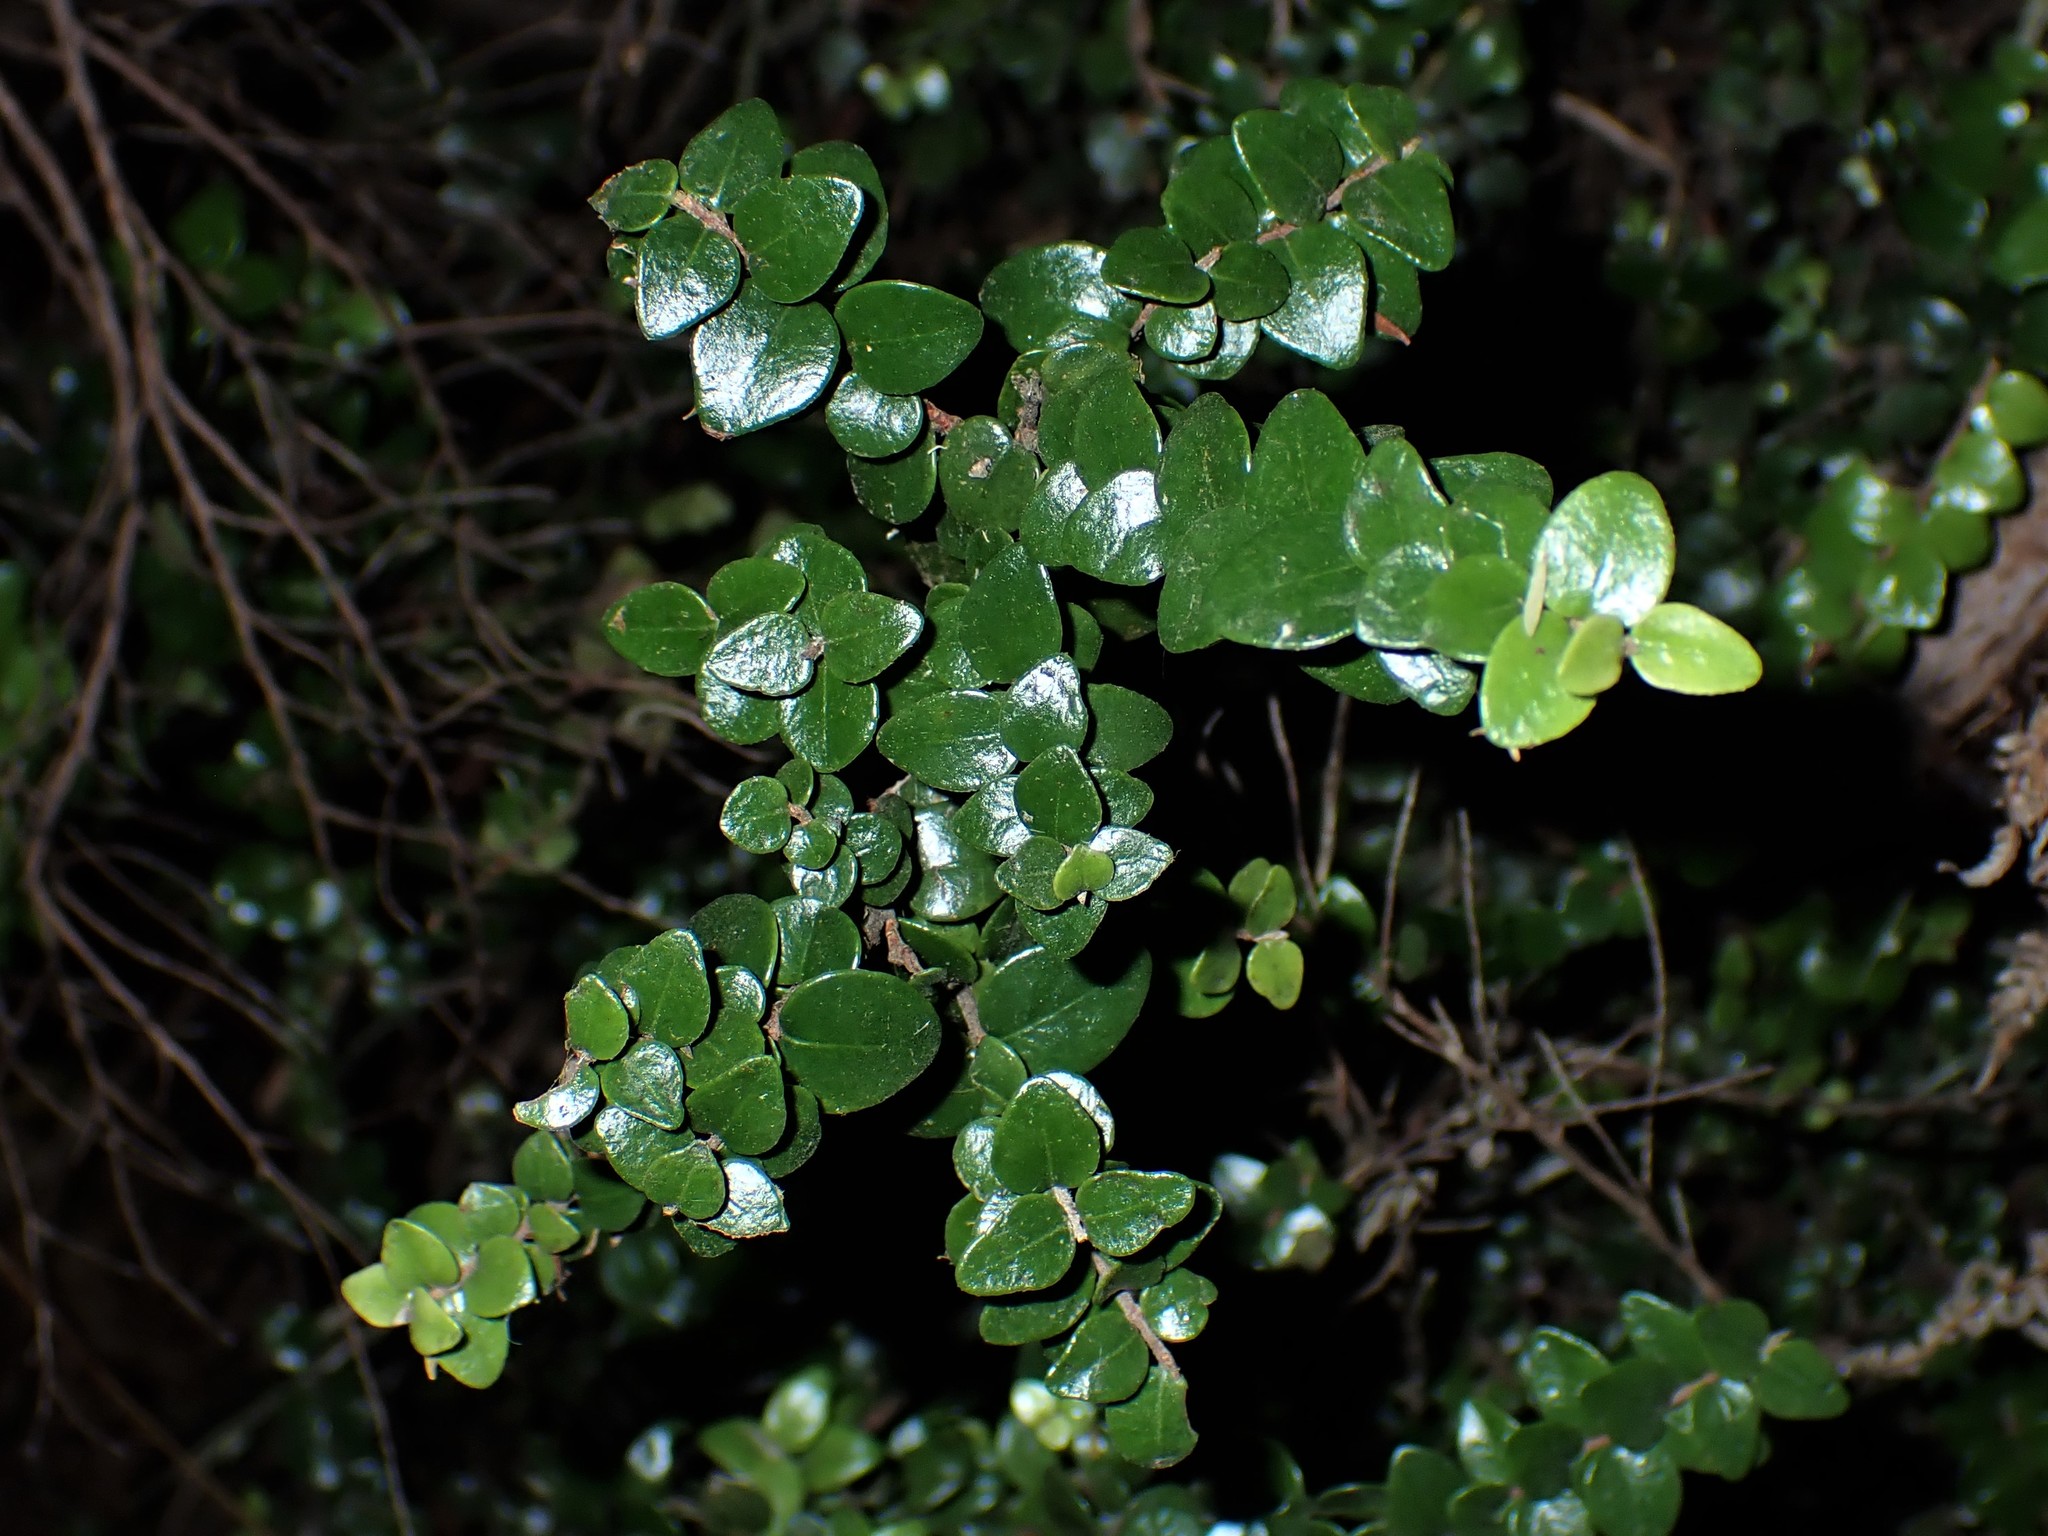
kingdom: Plantae
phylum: Tracheophyta
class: Magnoliopsida
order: Myrtales
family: Myrtaceae
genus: Metrosideros
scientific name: Metrosideros perforata
